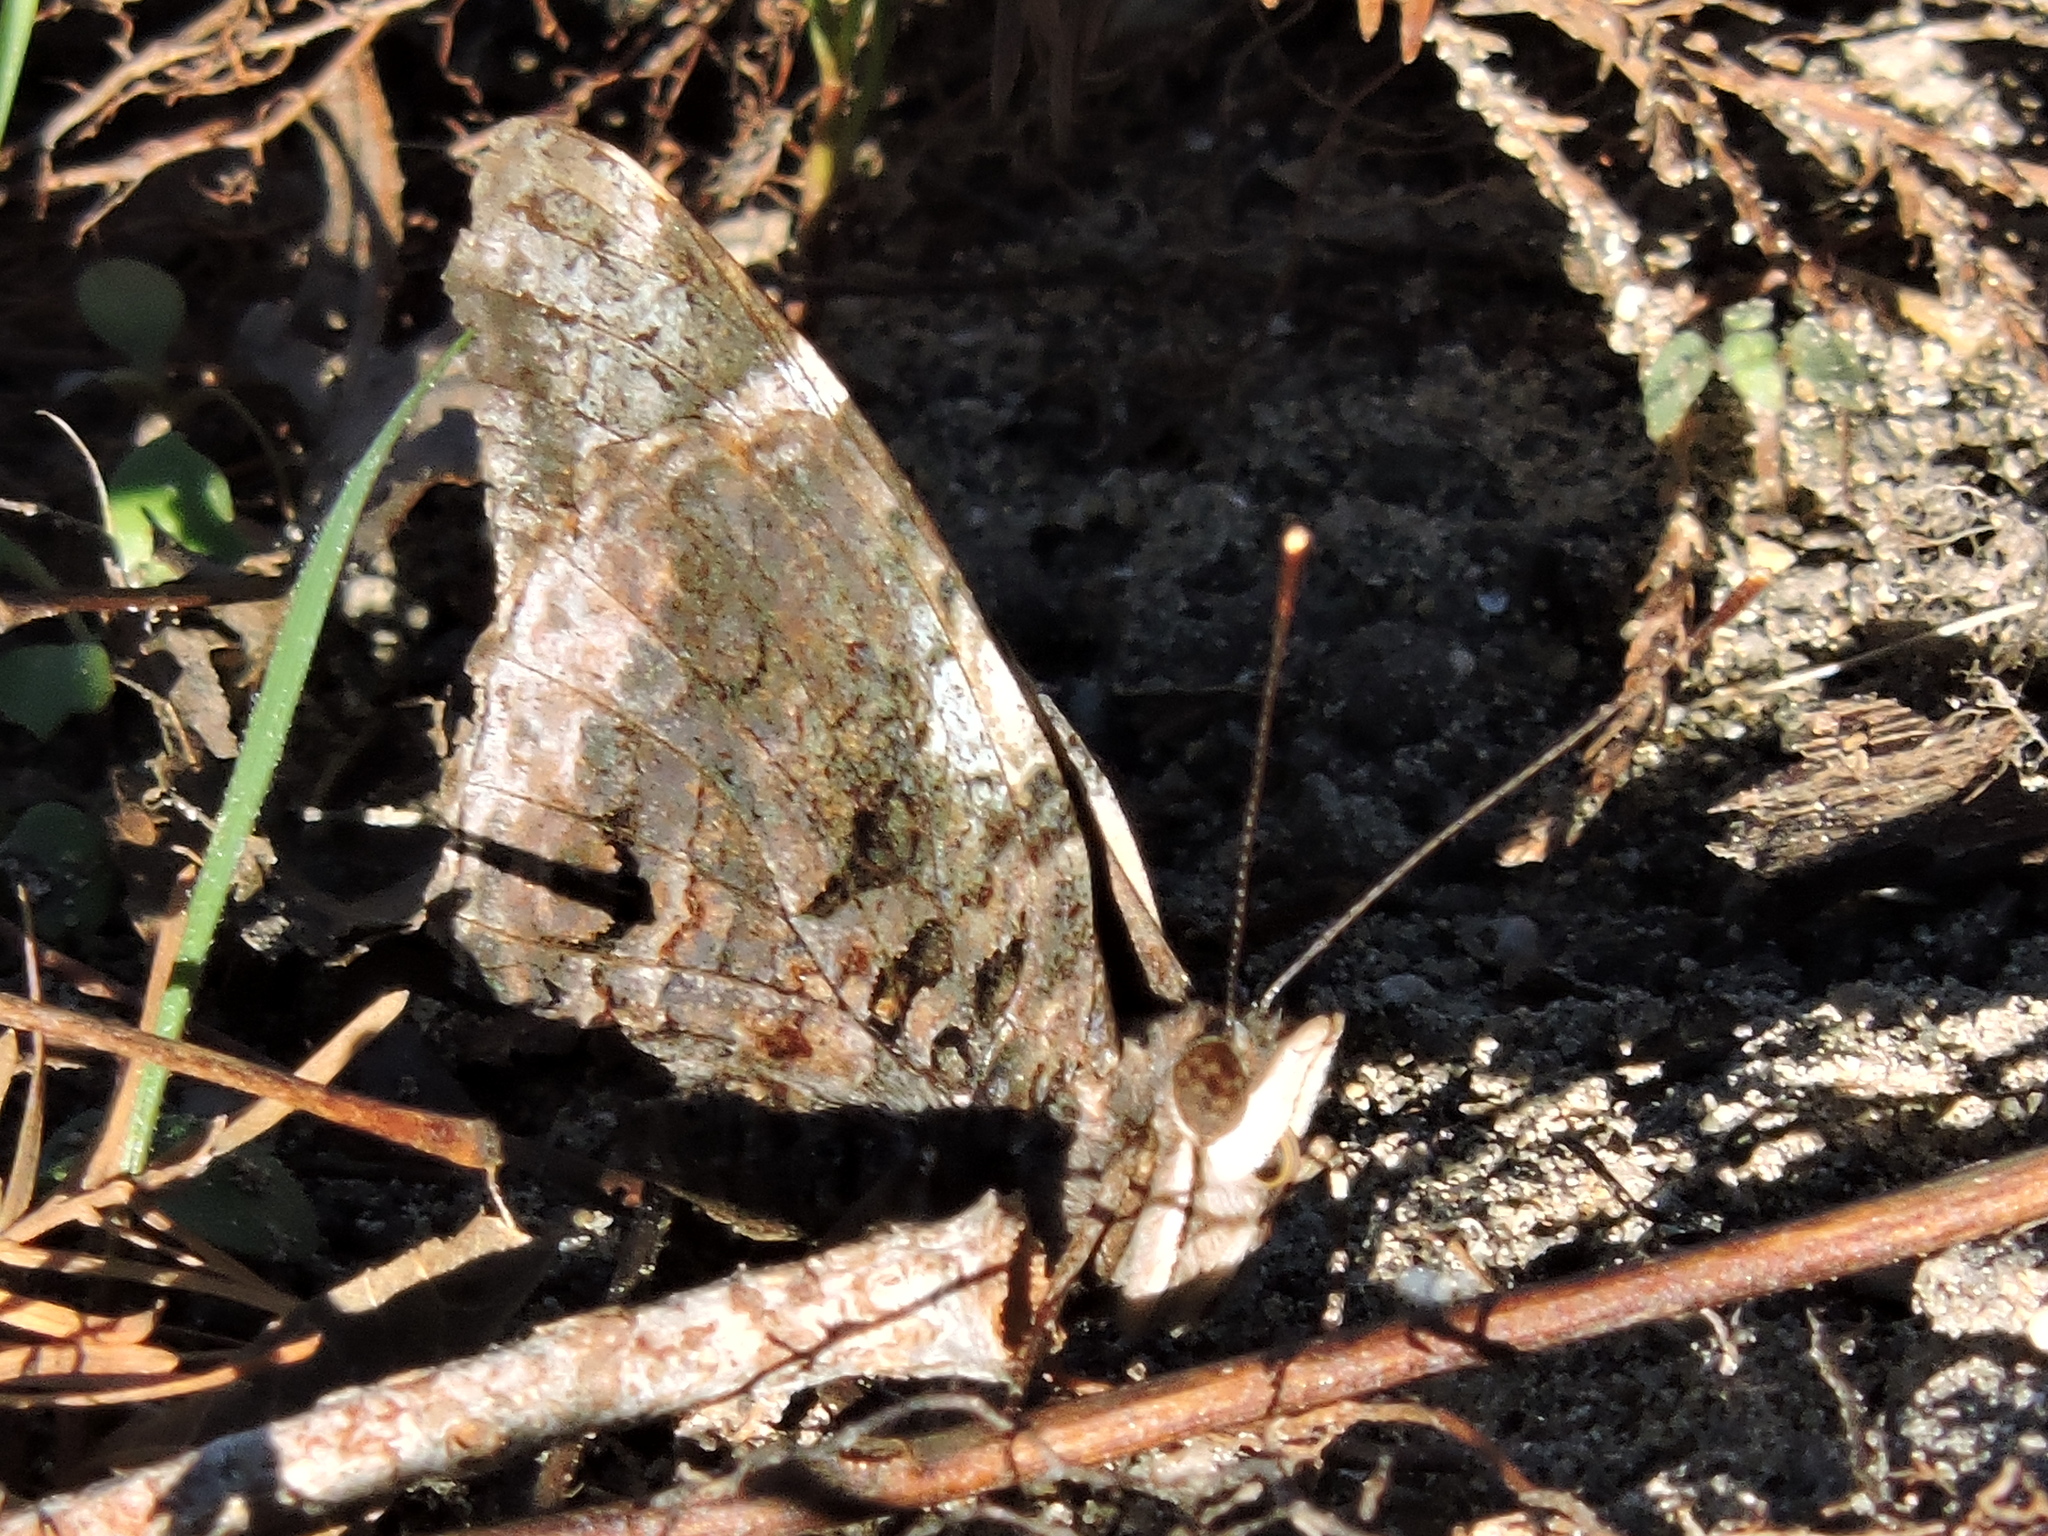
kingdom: Animalia
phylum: Arthropoda
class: Insecta
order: Lepidoptera
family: Nymphalidae
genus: Vanessa
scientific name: Vanessa atalanta
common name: Red admiral
